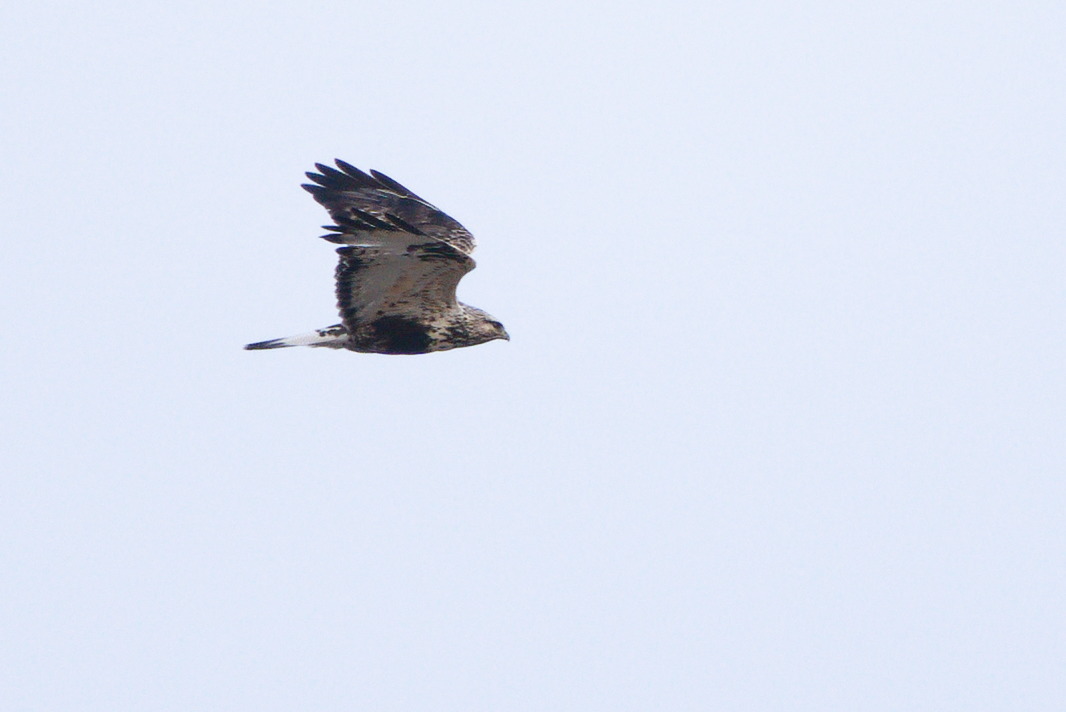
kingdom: Animalia
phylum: Chordata
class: Aves
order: Accipitriformes
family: Accipitridae
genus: Buteo
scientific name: Buteo lagopus
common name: Rough-legged buzzard
